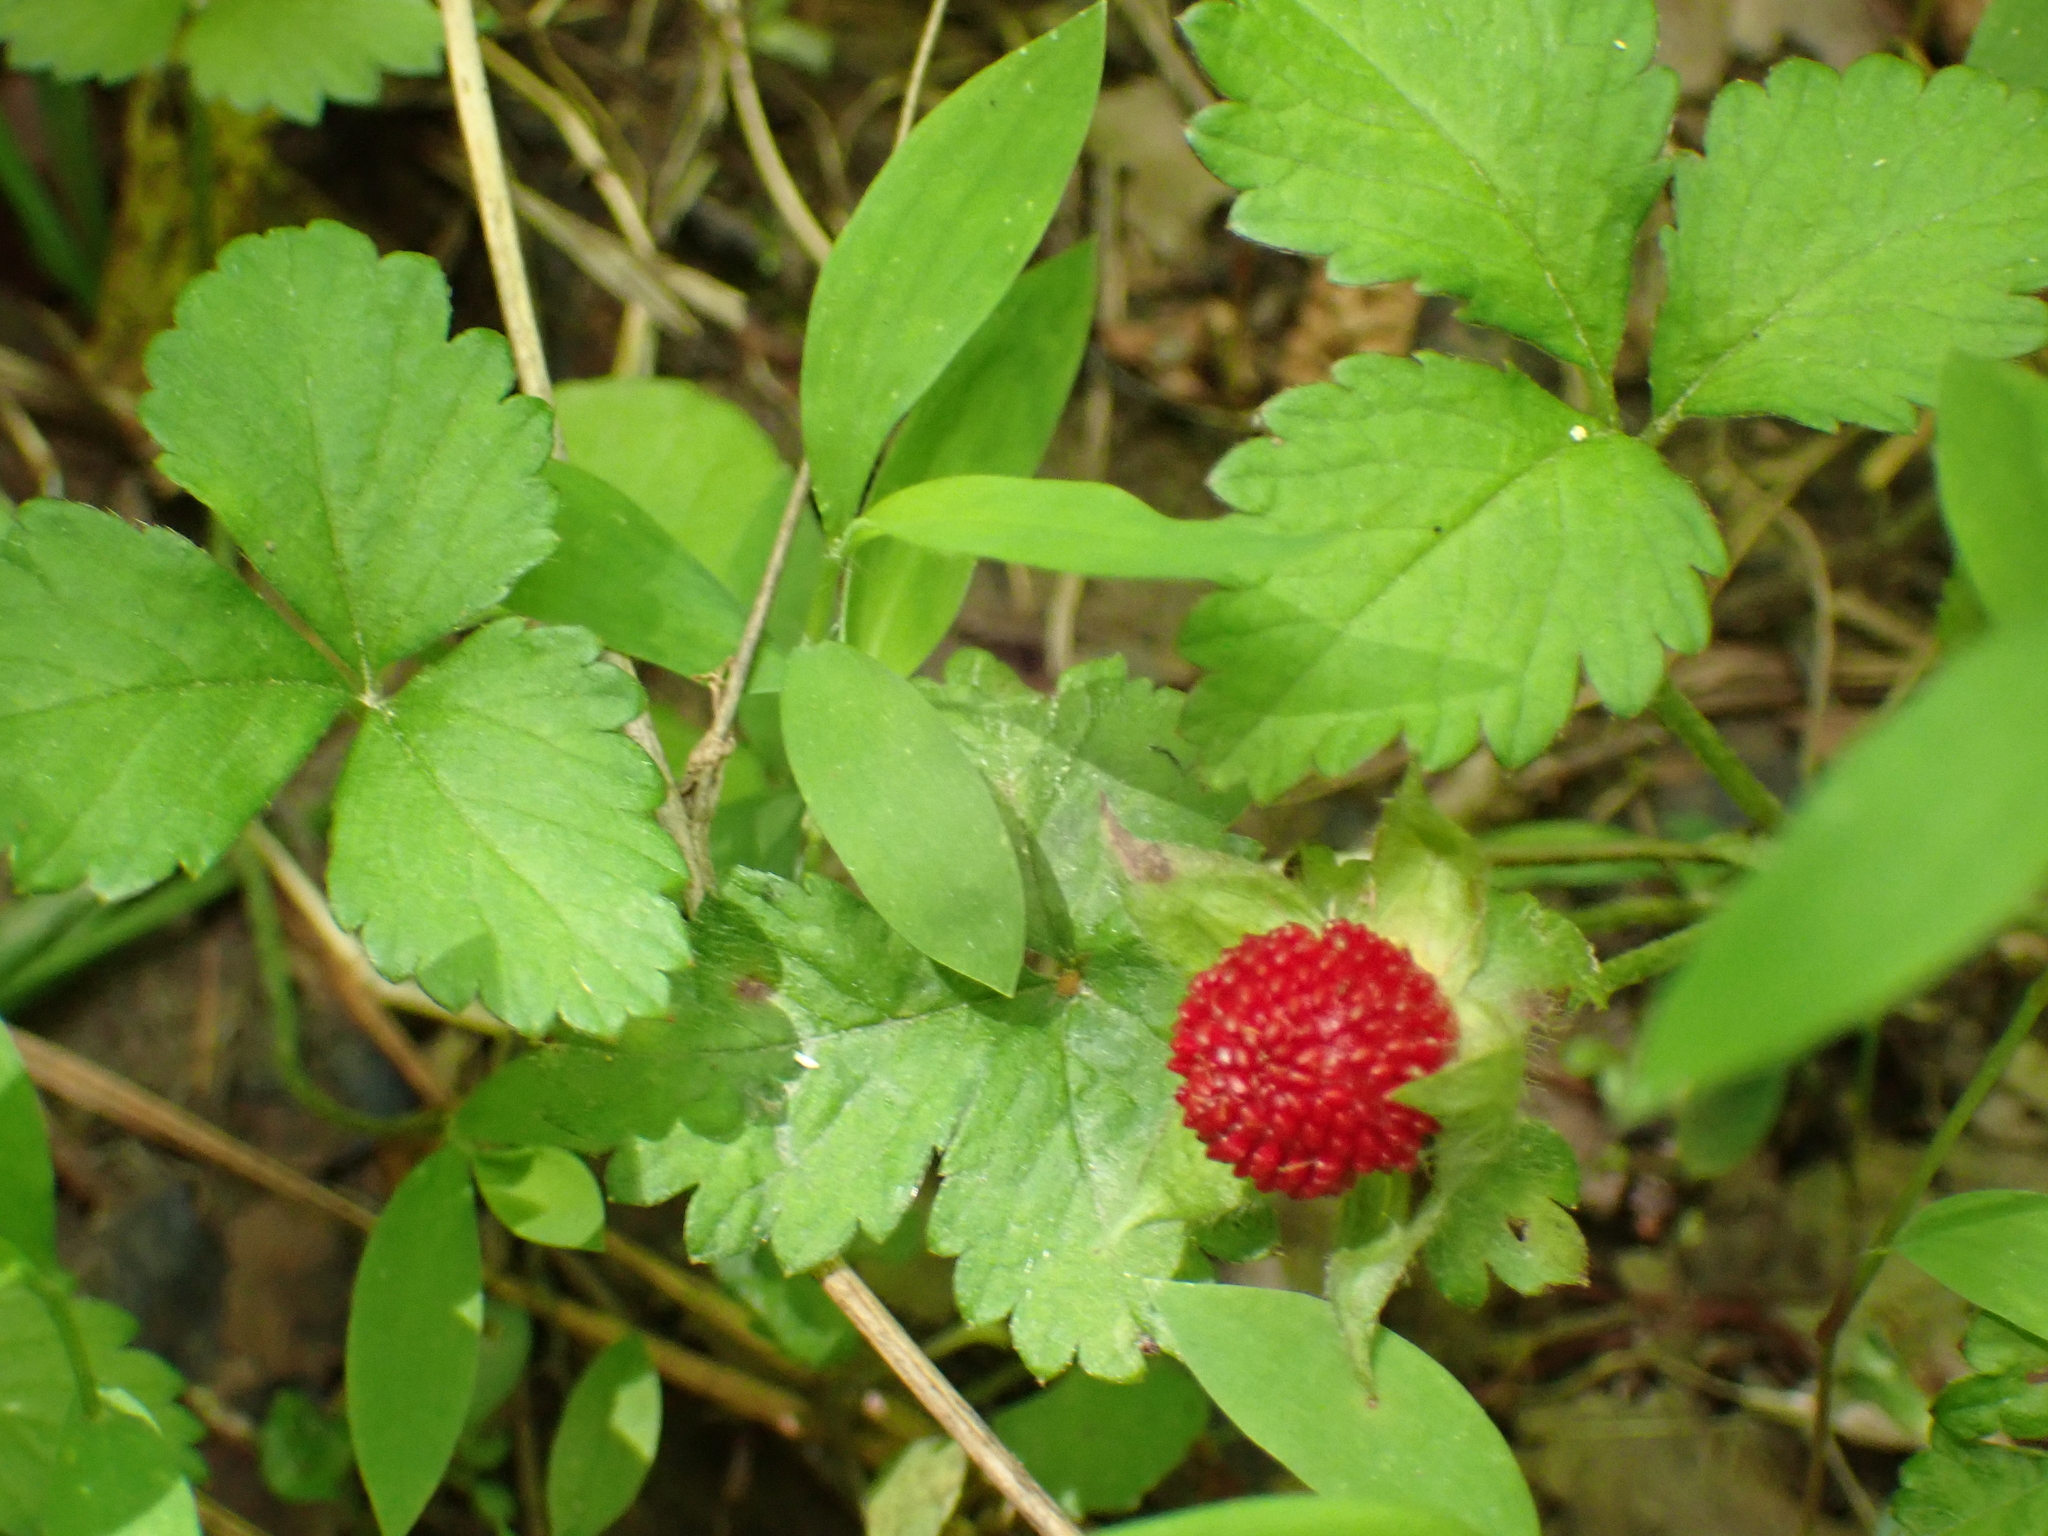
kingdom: Plantae
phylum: Tracheophyta
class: Magnoliopsida
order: Rosales
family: Rosaceae
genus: Potentilla
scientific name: Potentilla indica
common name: Yellow-flowered strawberry
